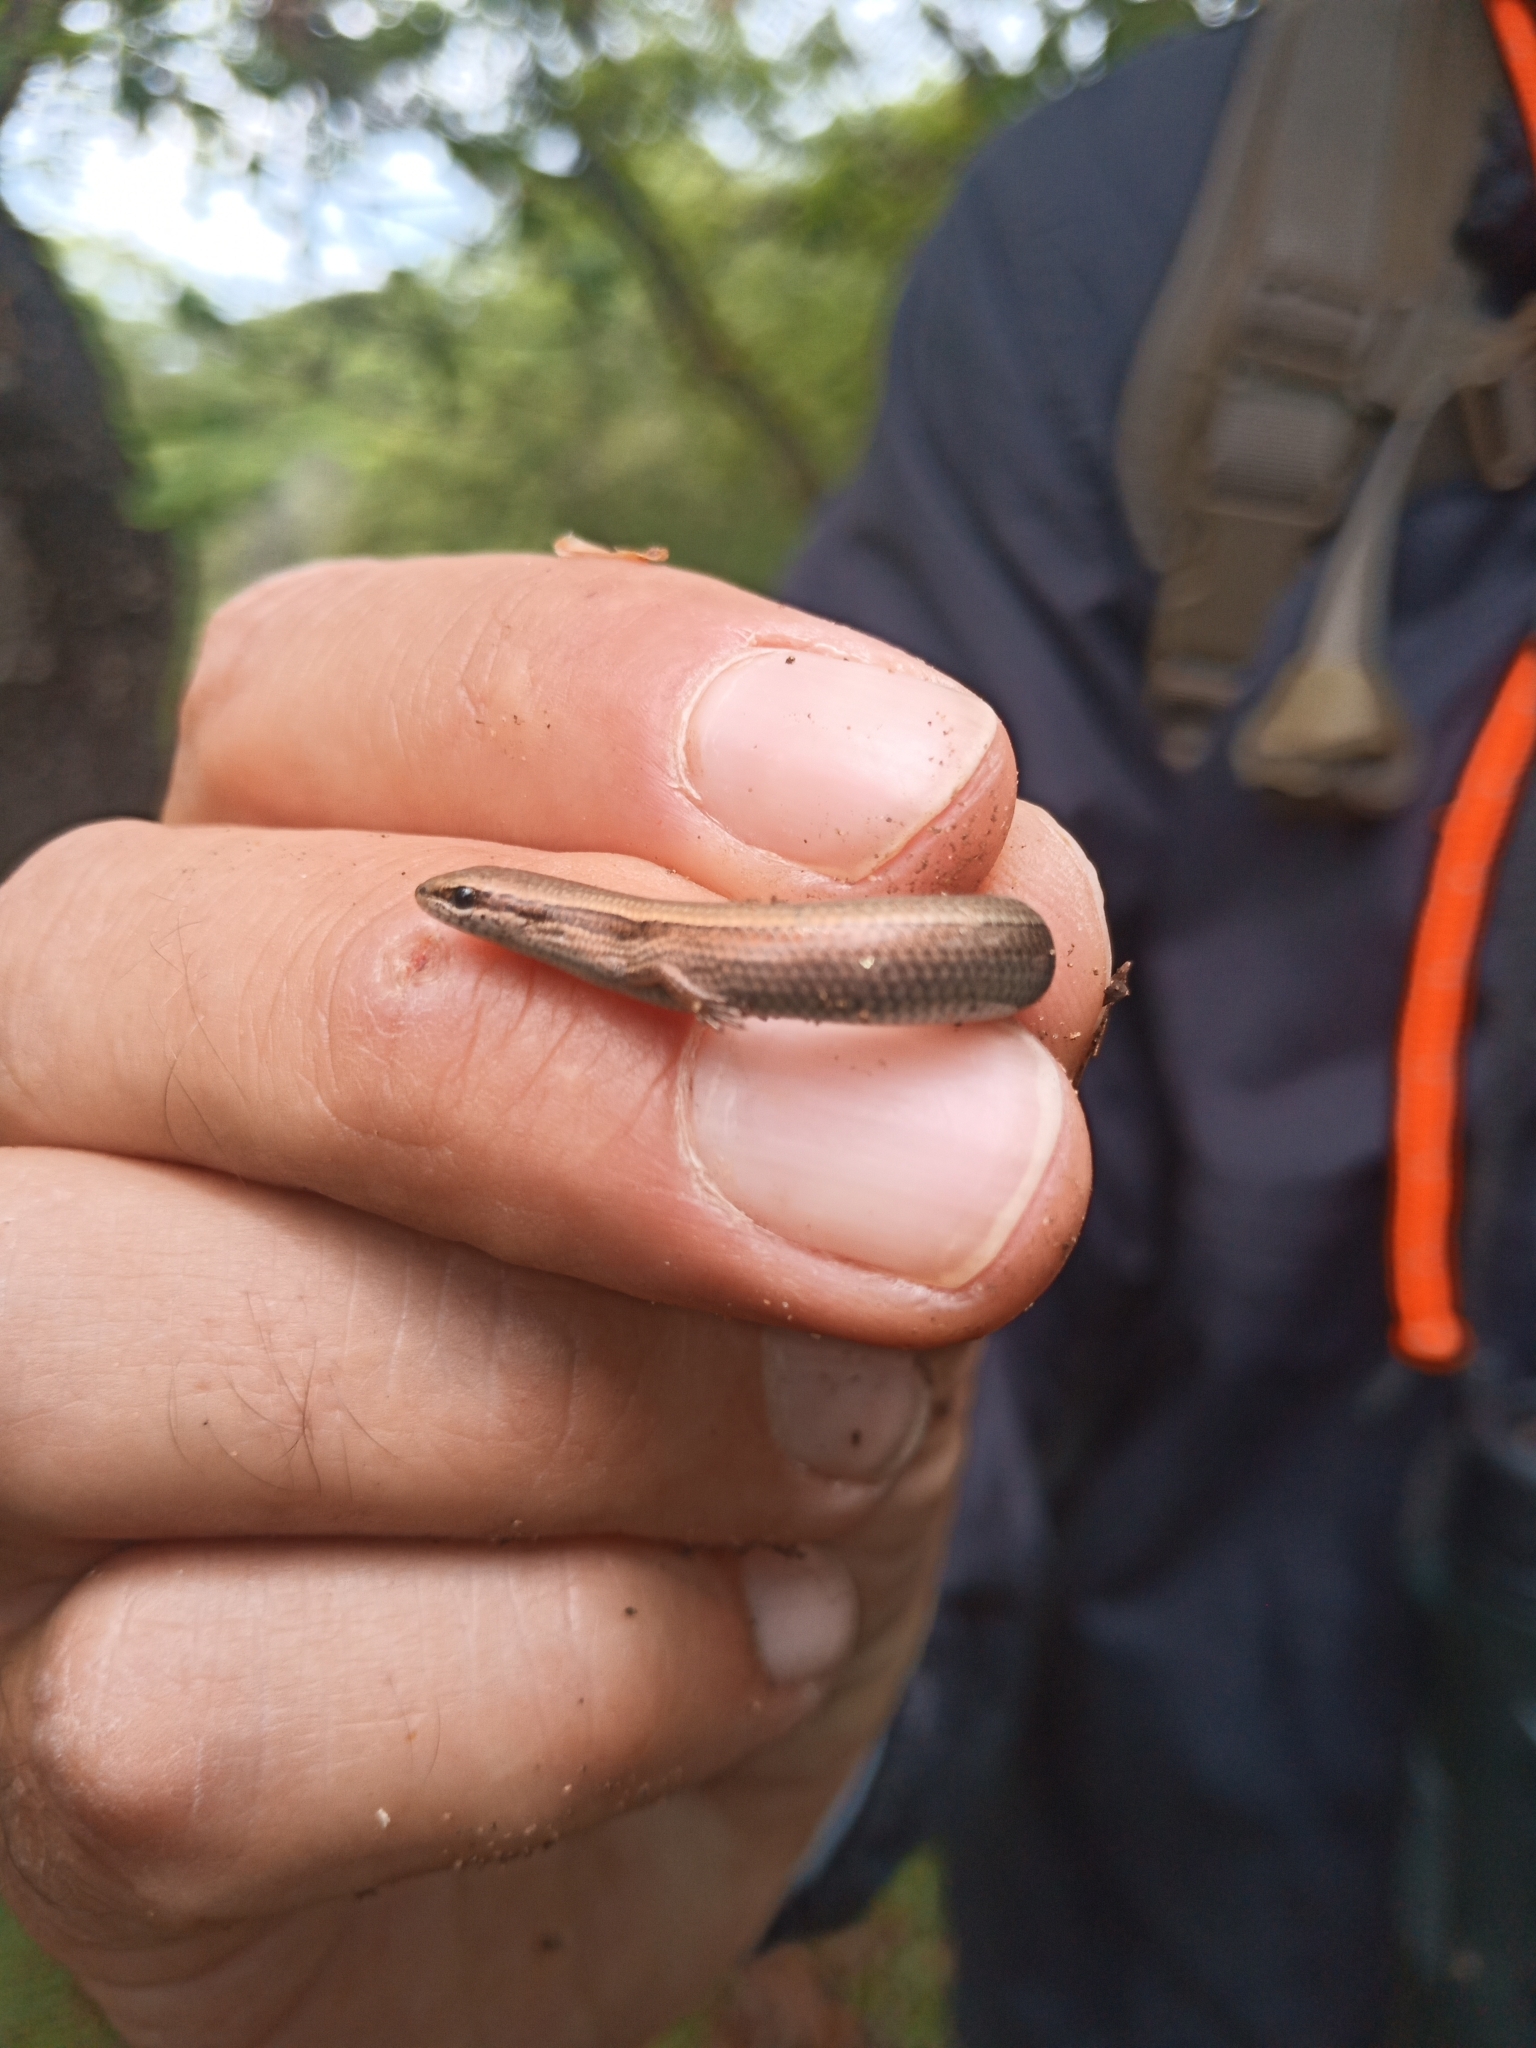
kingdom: Animalia
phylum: Chordata
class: Squamata
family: Scincidae
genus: Ablepharus
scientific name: Ablepharus kitaibelii
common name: Juniper skink
